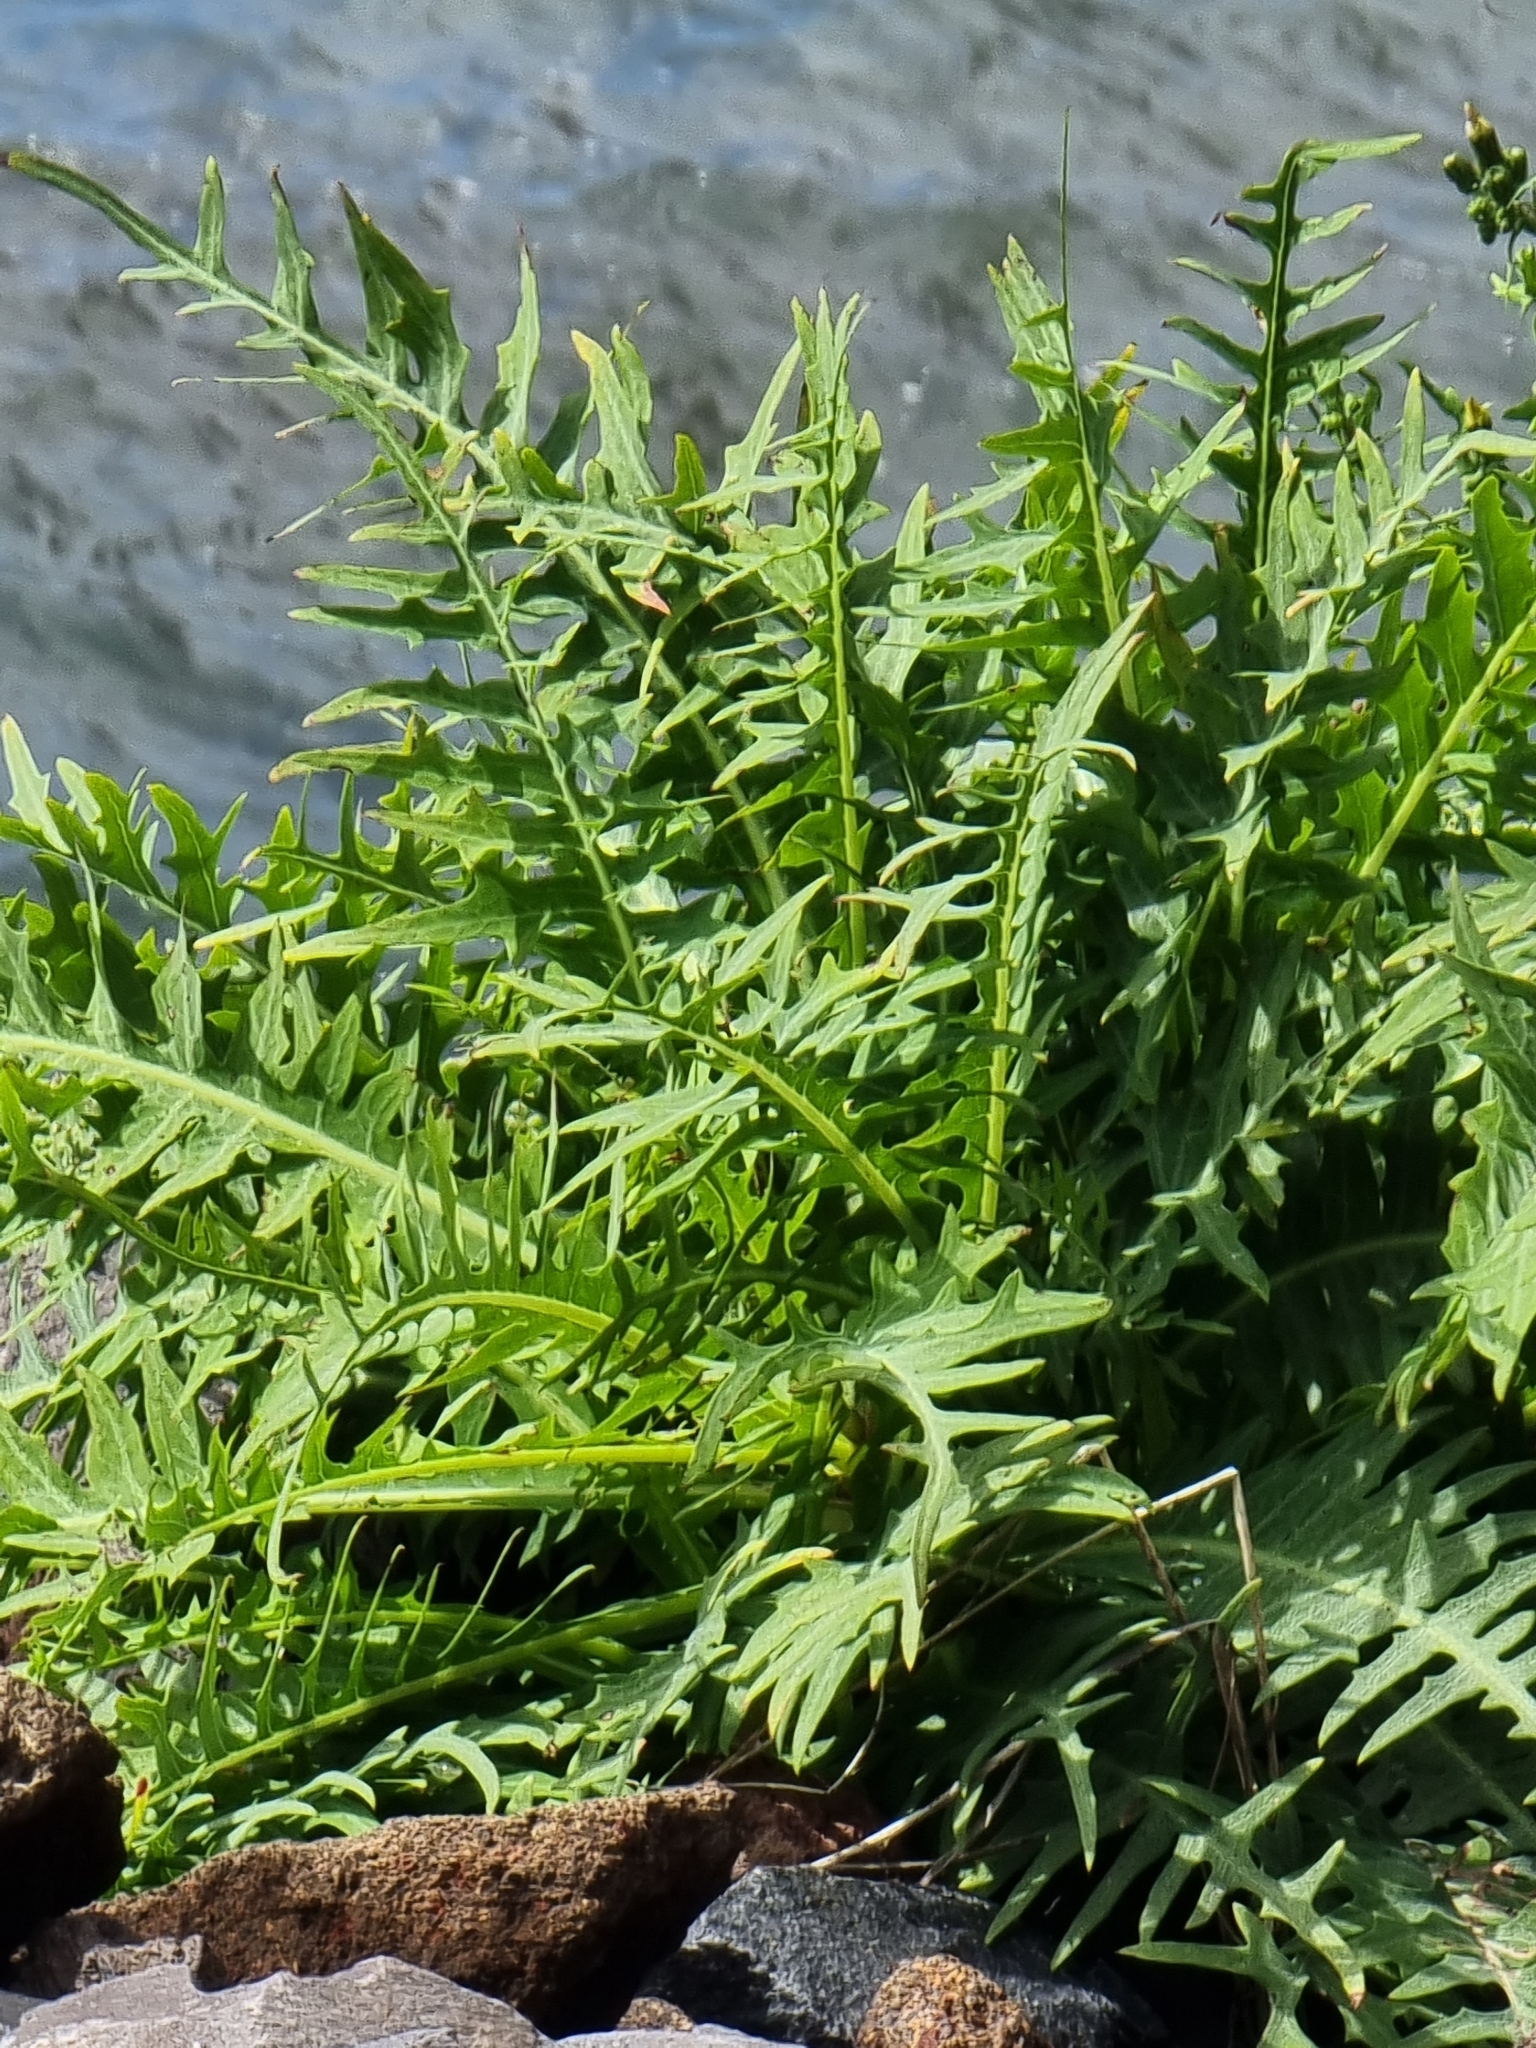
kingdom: Plantae
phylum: Tracheophyta
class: Magnoliopsida
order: Asterales
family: Asteraceae
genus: Sonchus
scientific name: Sonchus ustulatus
